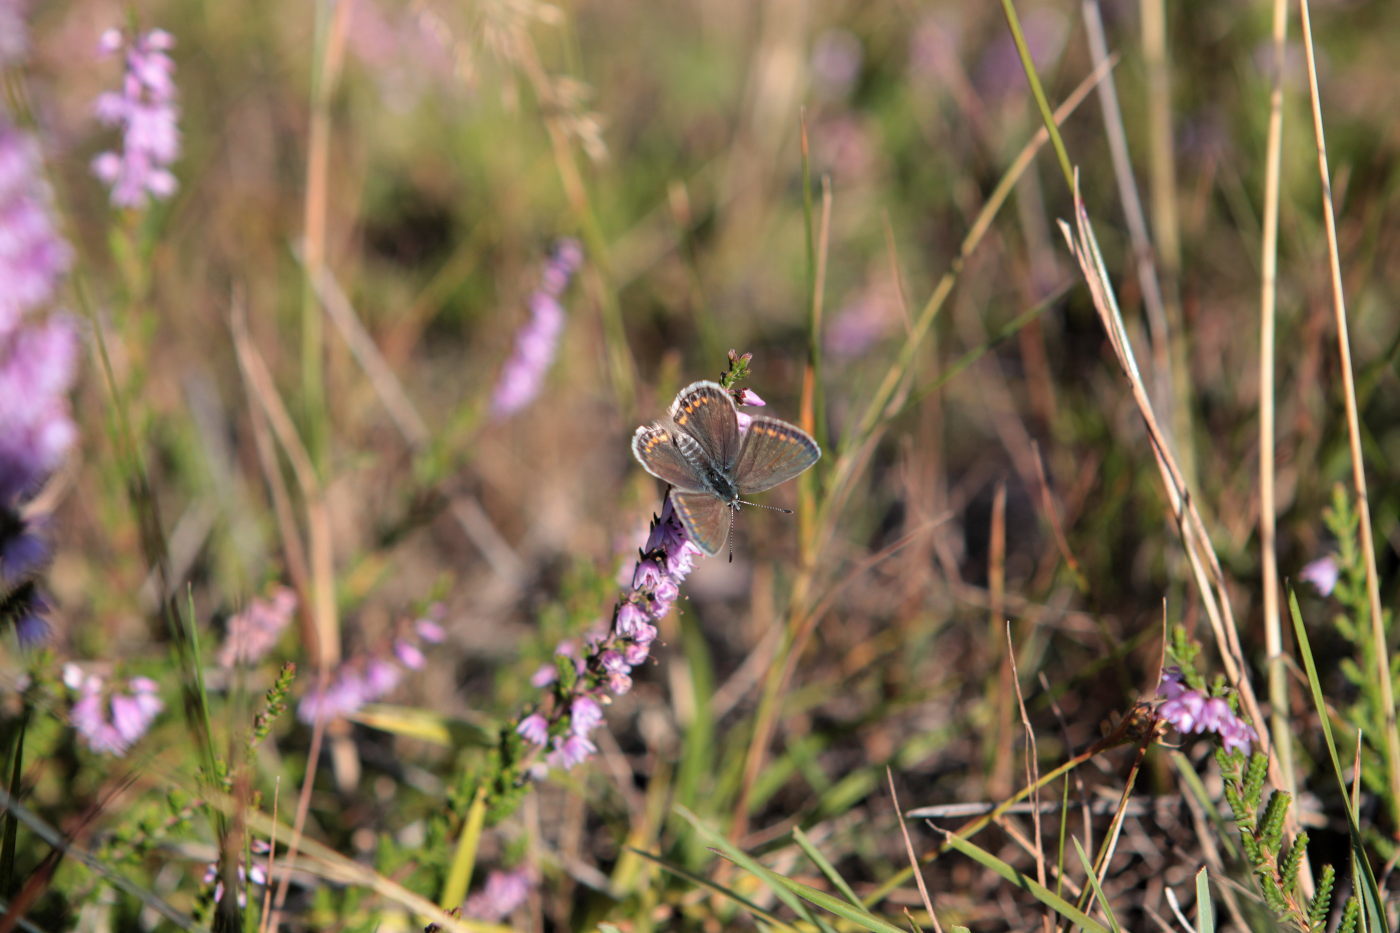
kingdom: Animalia
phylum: Arthropoda
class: Insecta
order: Lepidoptera
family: Lycaenidae
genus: Polyommatus
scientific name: Polyommatus icarus
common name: Common blue
